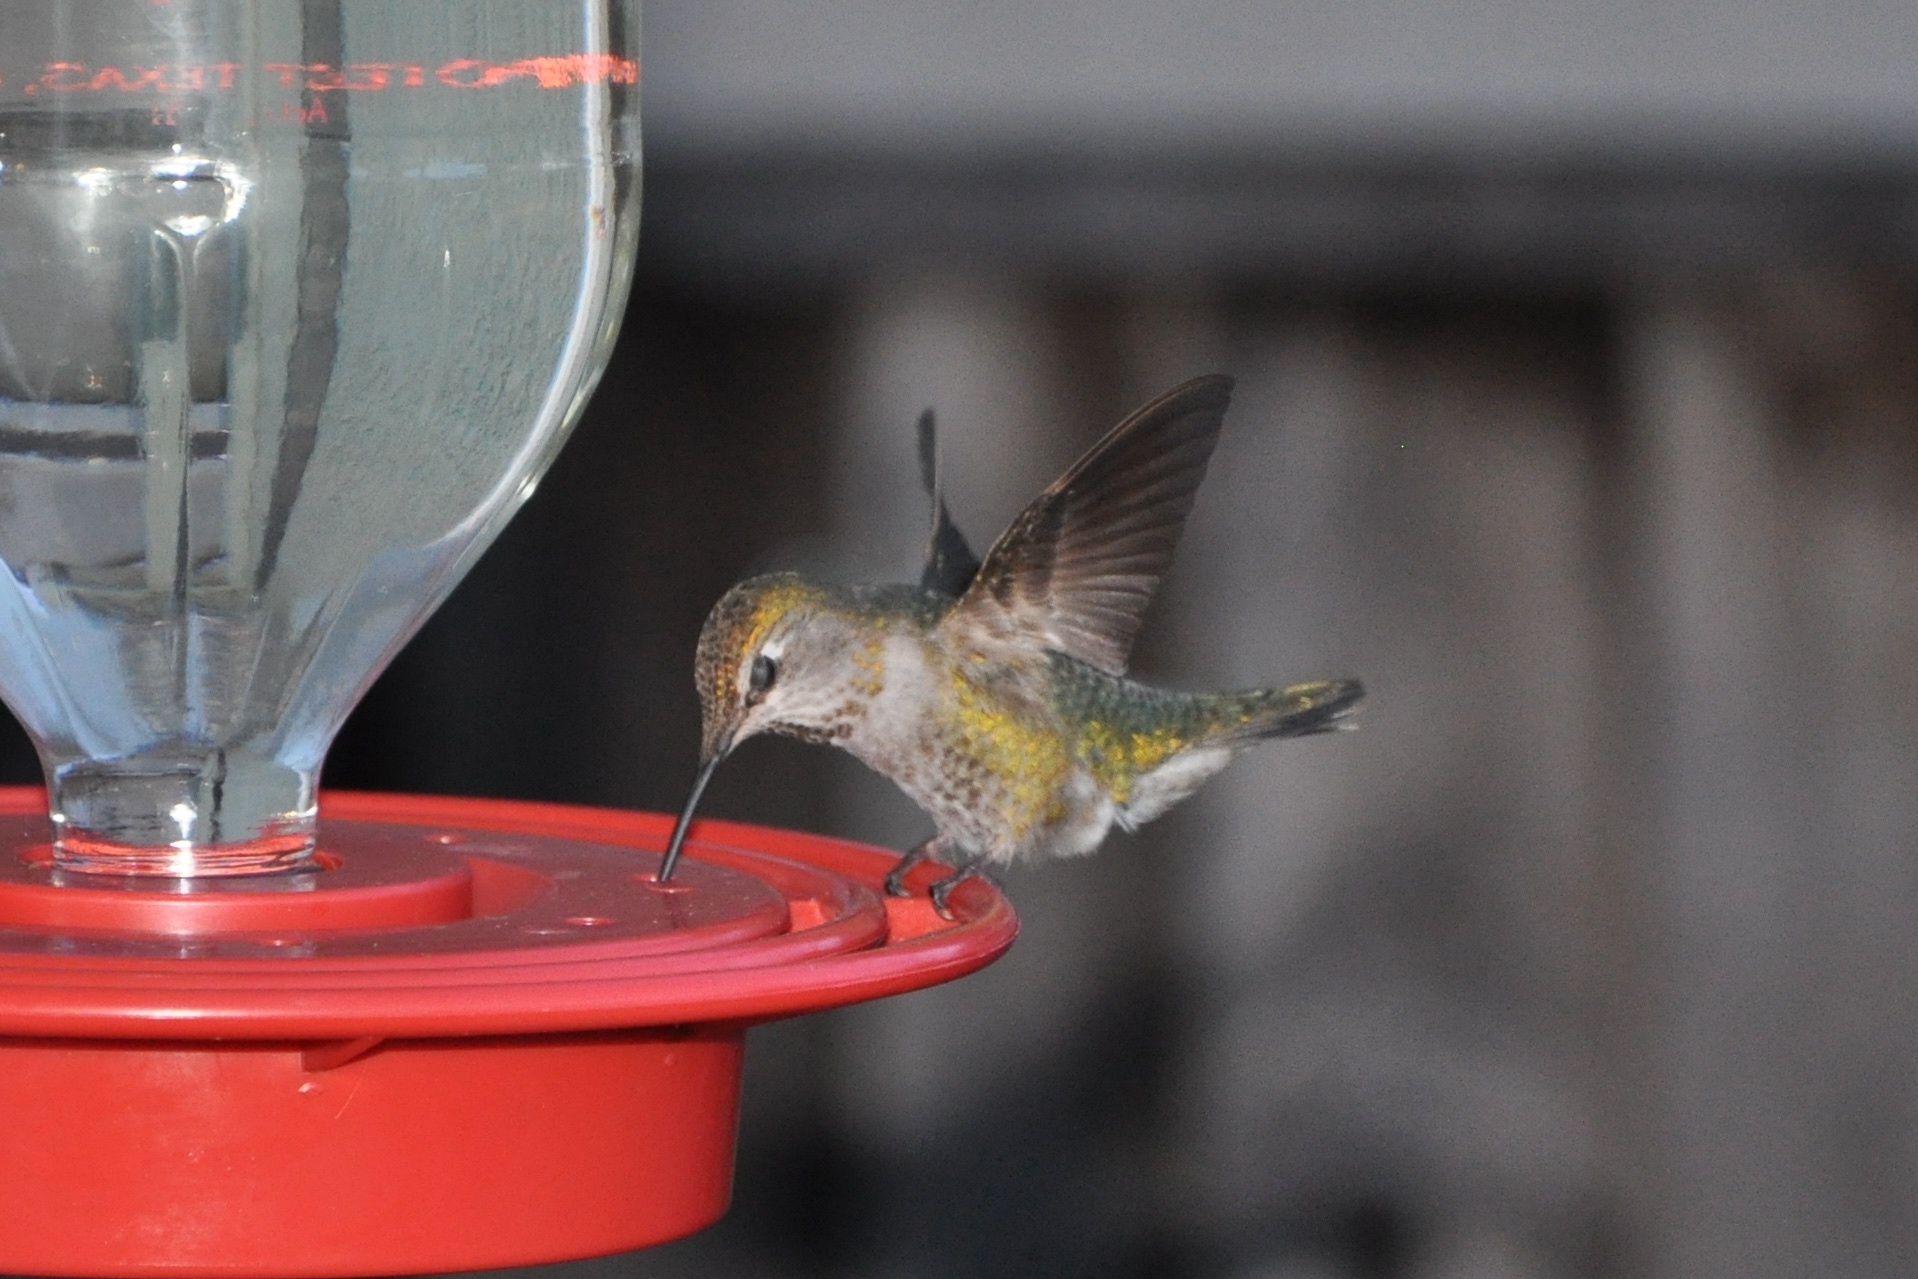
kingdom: Animalia
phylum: Chordata
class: Aves
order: Apodiformes
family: Trochilidae
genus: Calypte
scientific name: Calypte anna
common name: Anna's hummingbird
